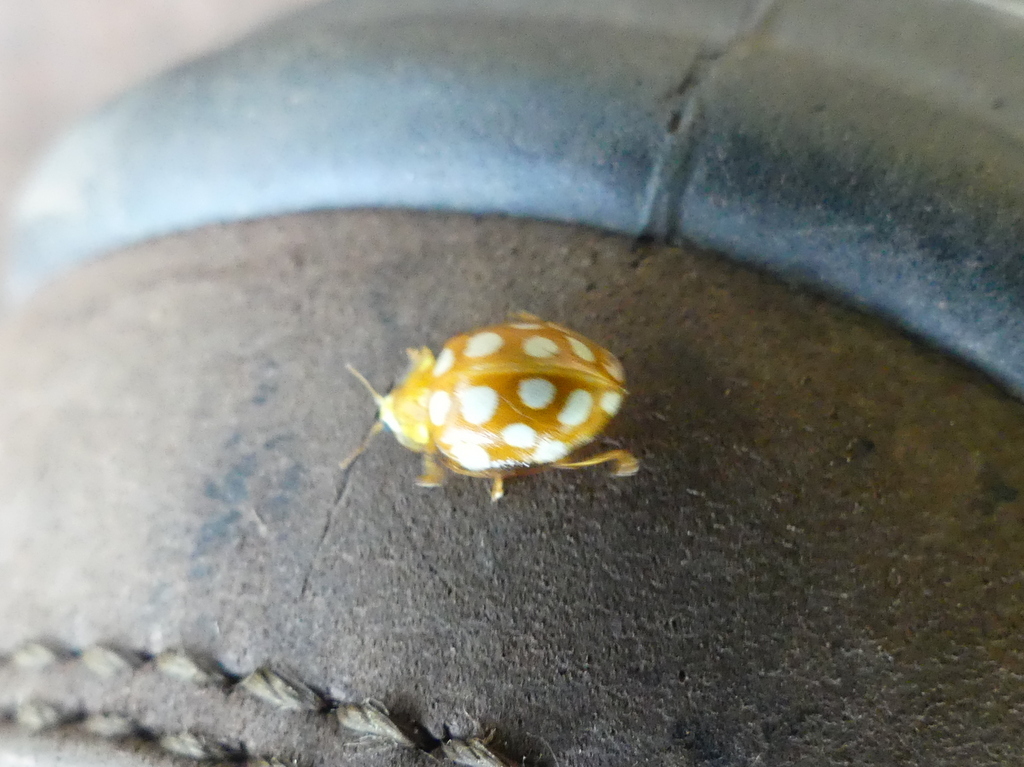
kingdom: Animalia
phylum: Arthropoda
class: Insecta
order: Coleoptera
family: Coccinellidae
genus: Halyzia
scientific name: Halyzia sedecimguttata
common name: Orange ladybird
